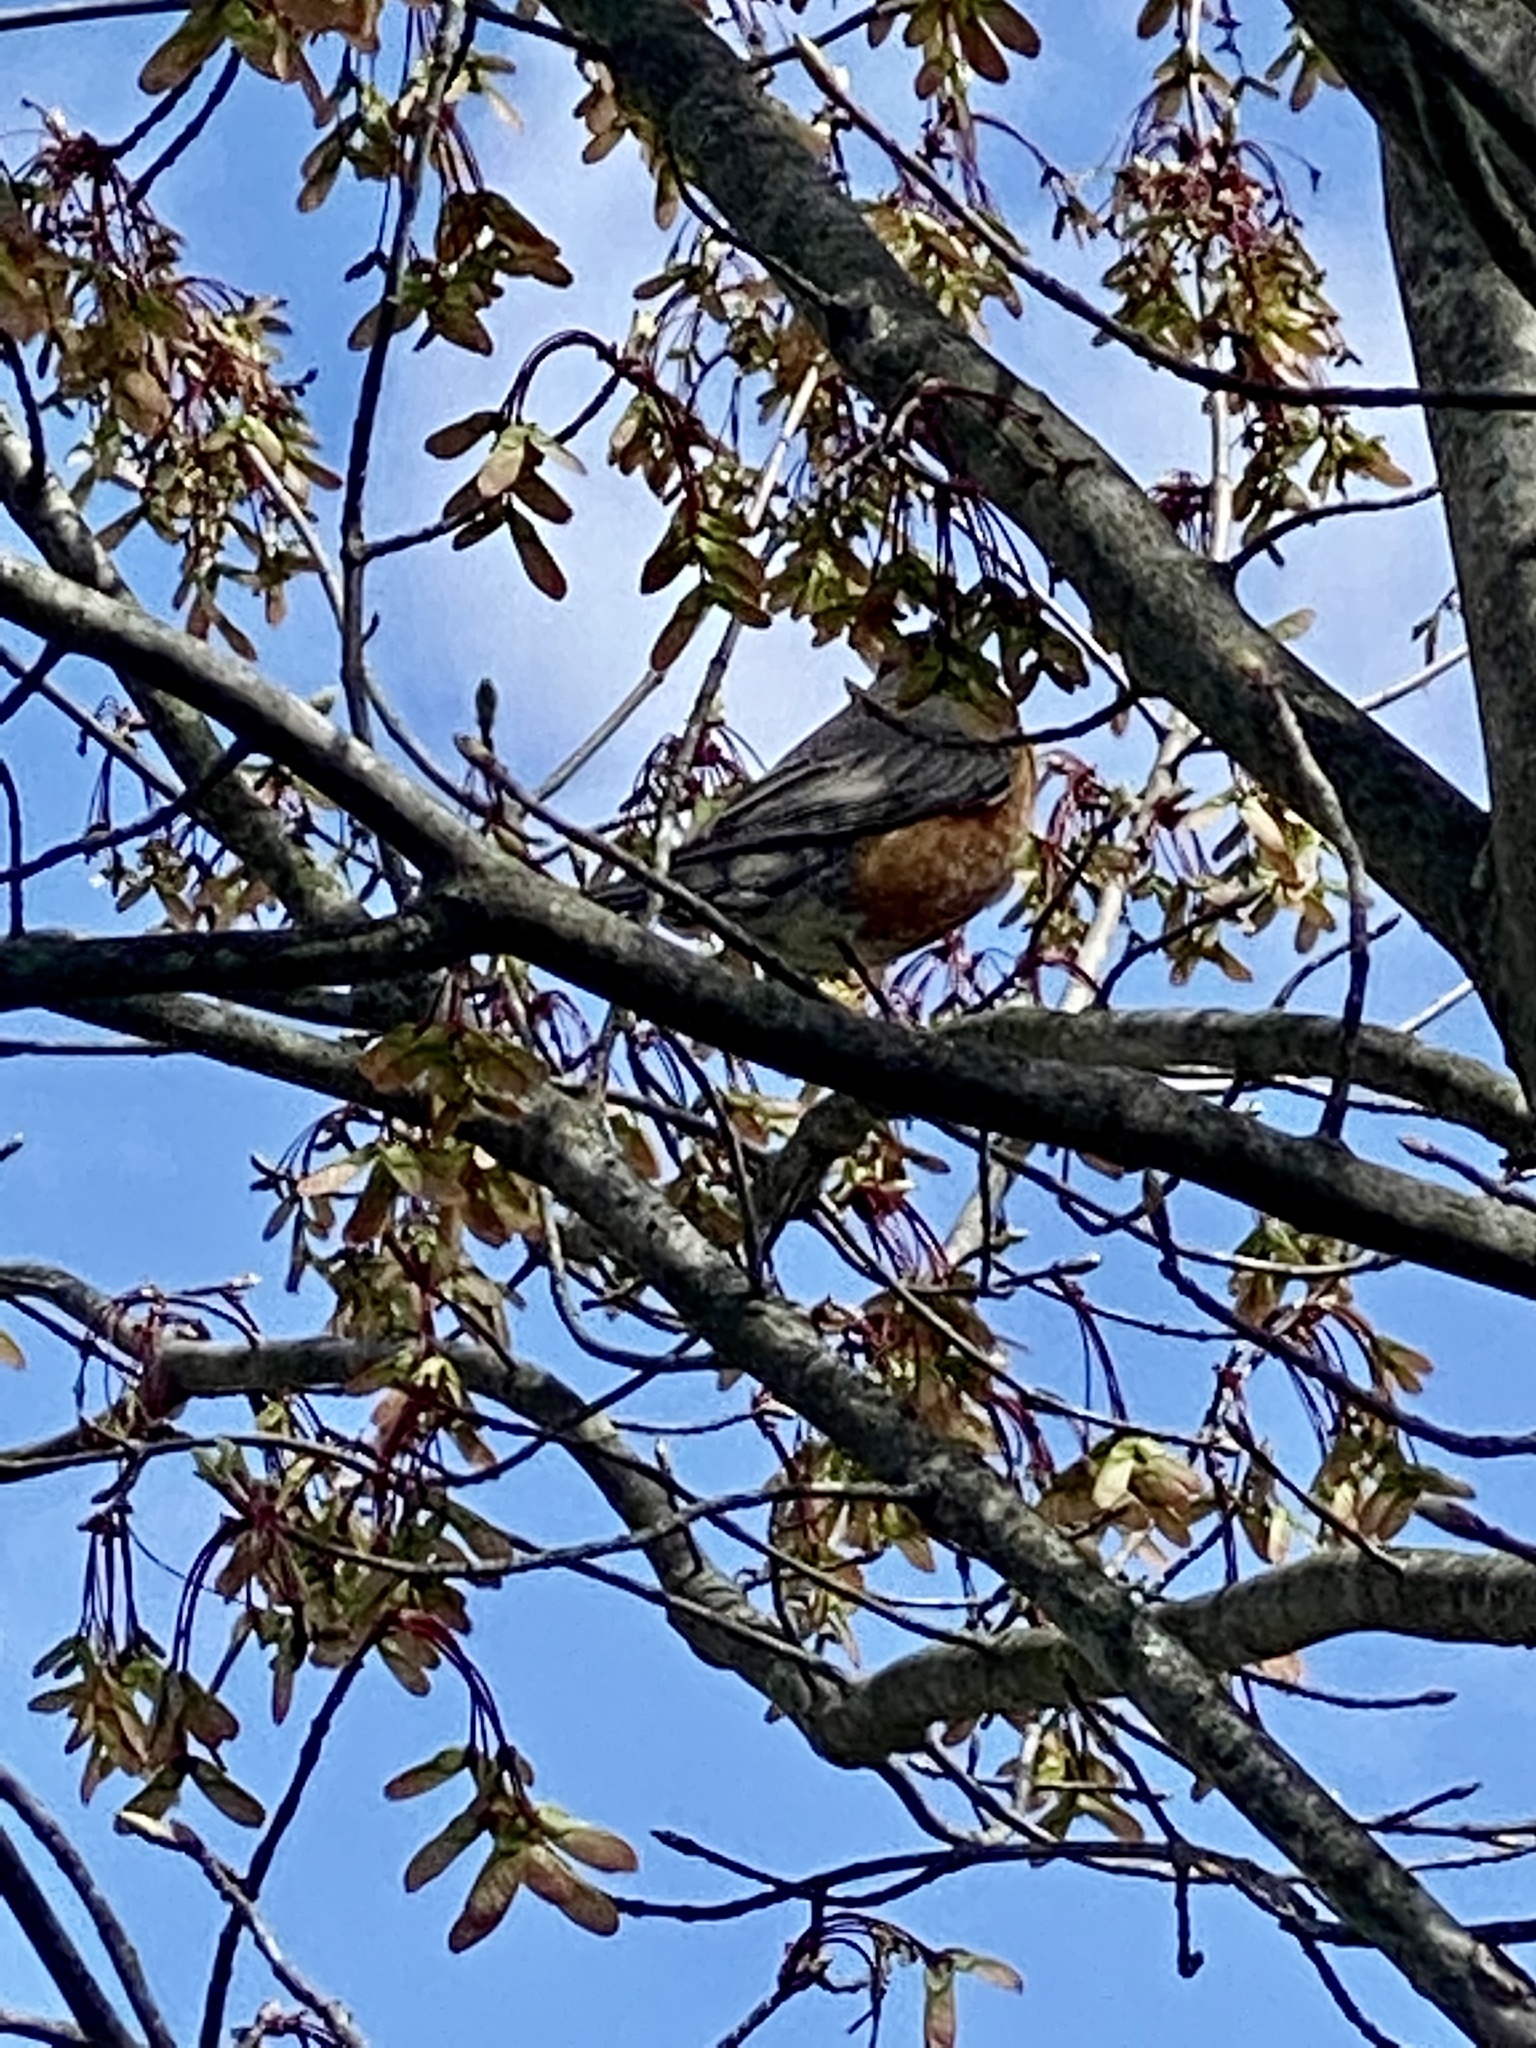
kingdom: Animalia
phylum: Chordata
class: Aves
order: Passeriformes
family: Turdidae
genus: Turdus
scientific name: Turdus migratorius
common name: American robin
